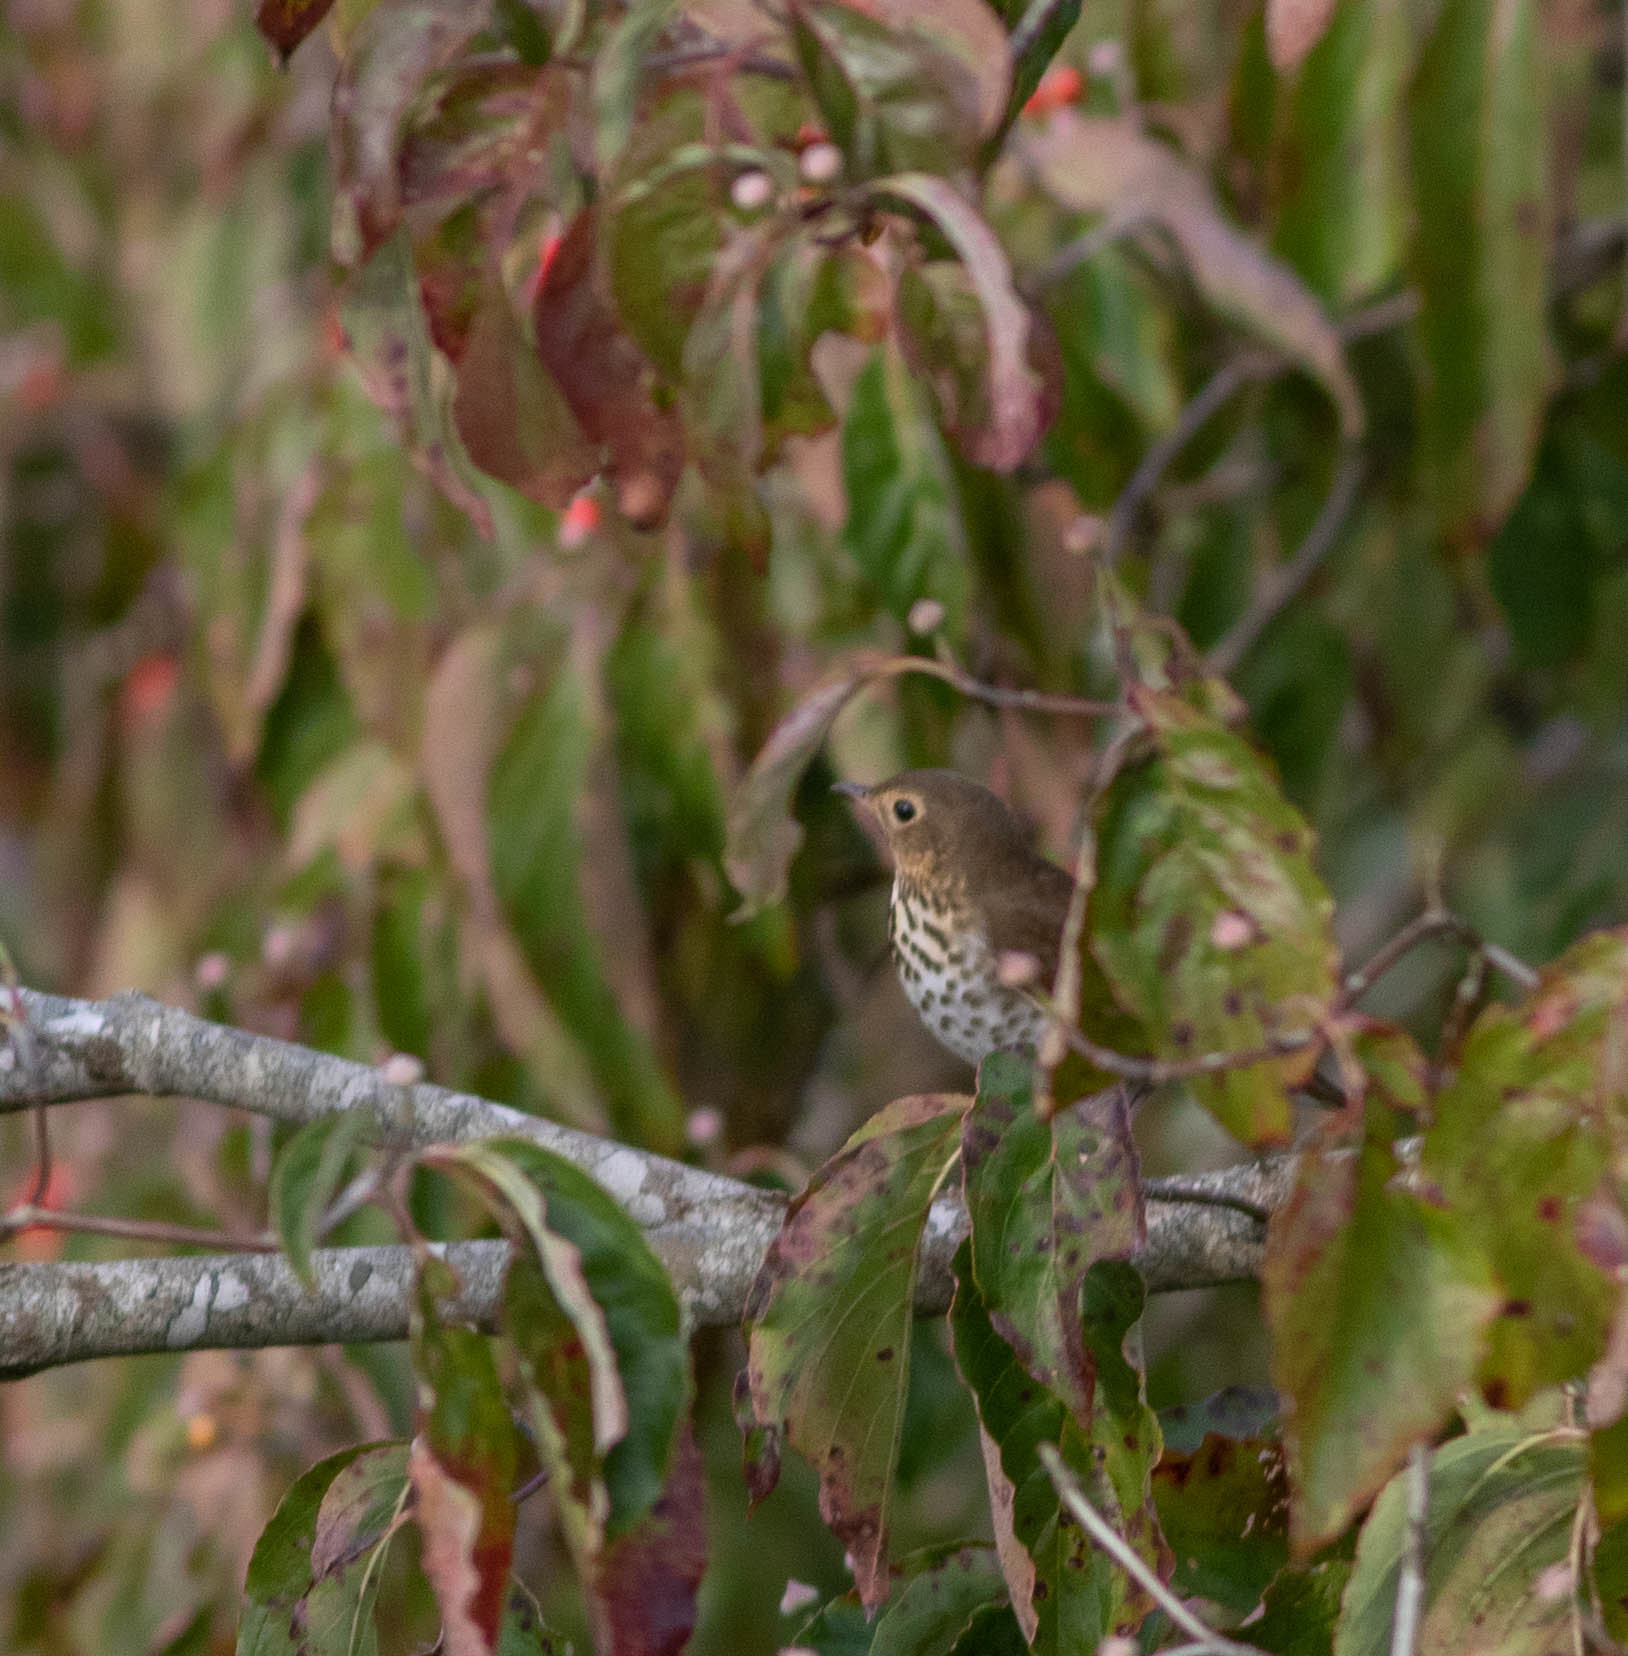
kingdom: Animalia
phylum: Chordata
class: Aves
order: Passeriformes
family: Turdidae
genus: Catharus
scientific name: Catharus ustulatus
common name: Swainson's thrush
